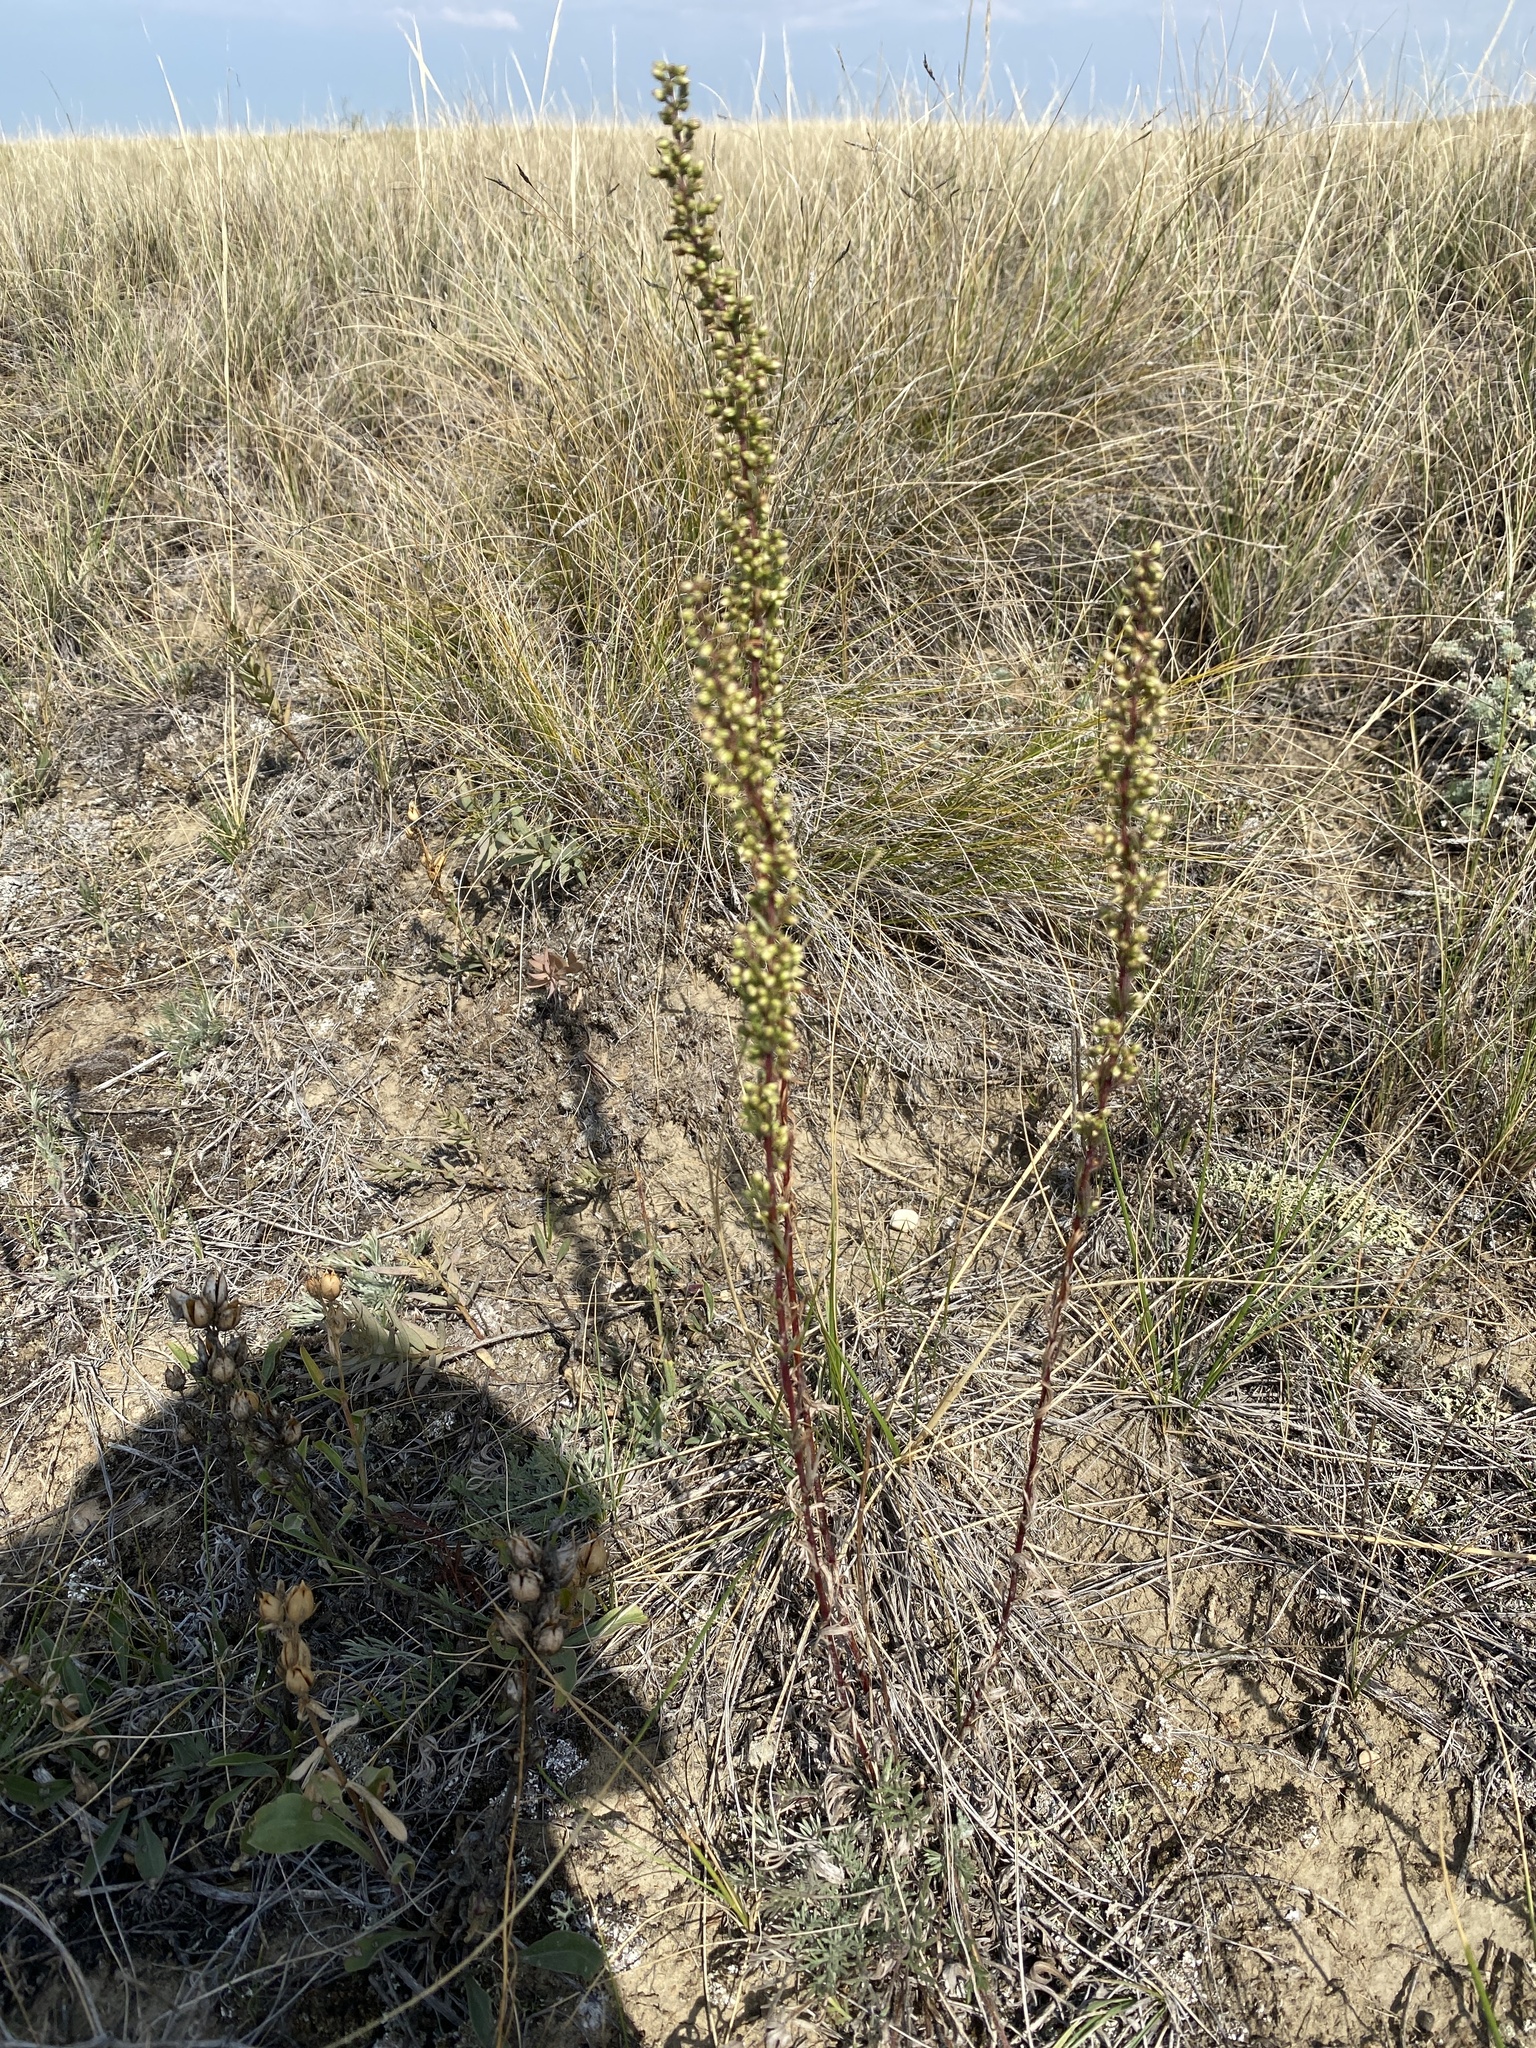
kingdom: Plantae
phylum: Tracheophyta
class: Magnoliopsida
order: Asterales
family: Asteraceae
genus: Artemisia
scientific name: Artemisia campestris
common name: Field wormwood
